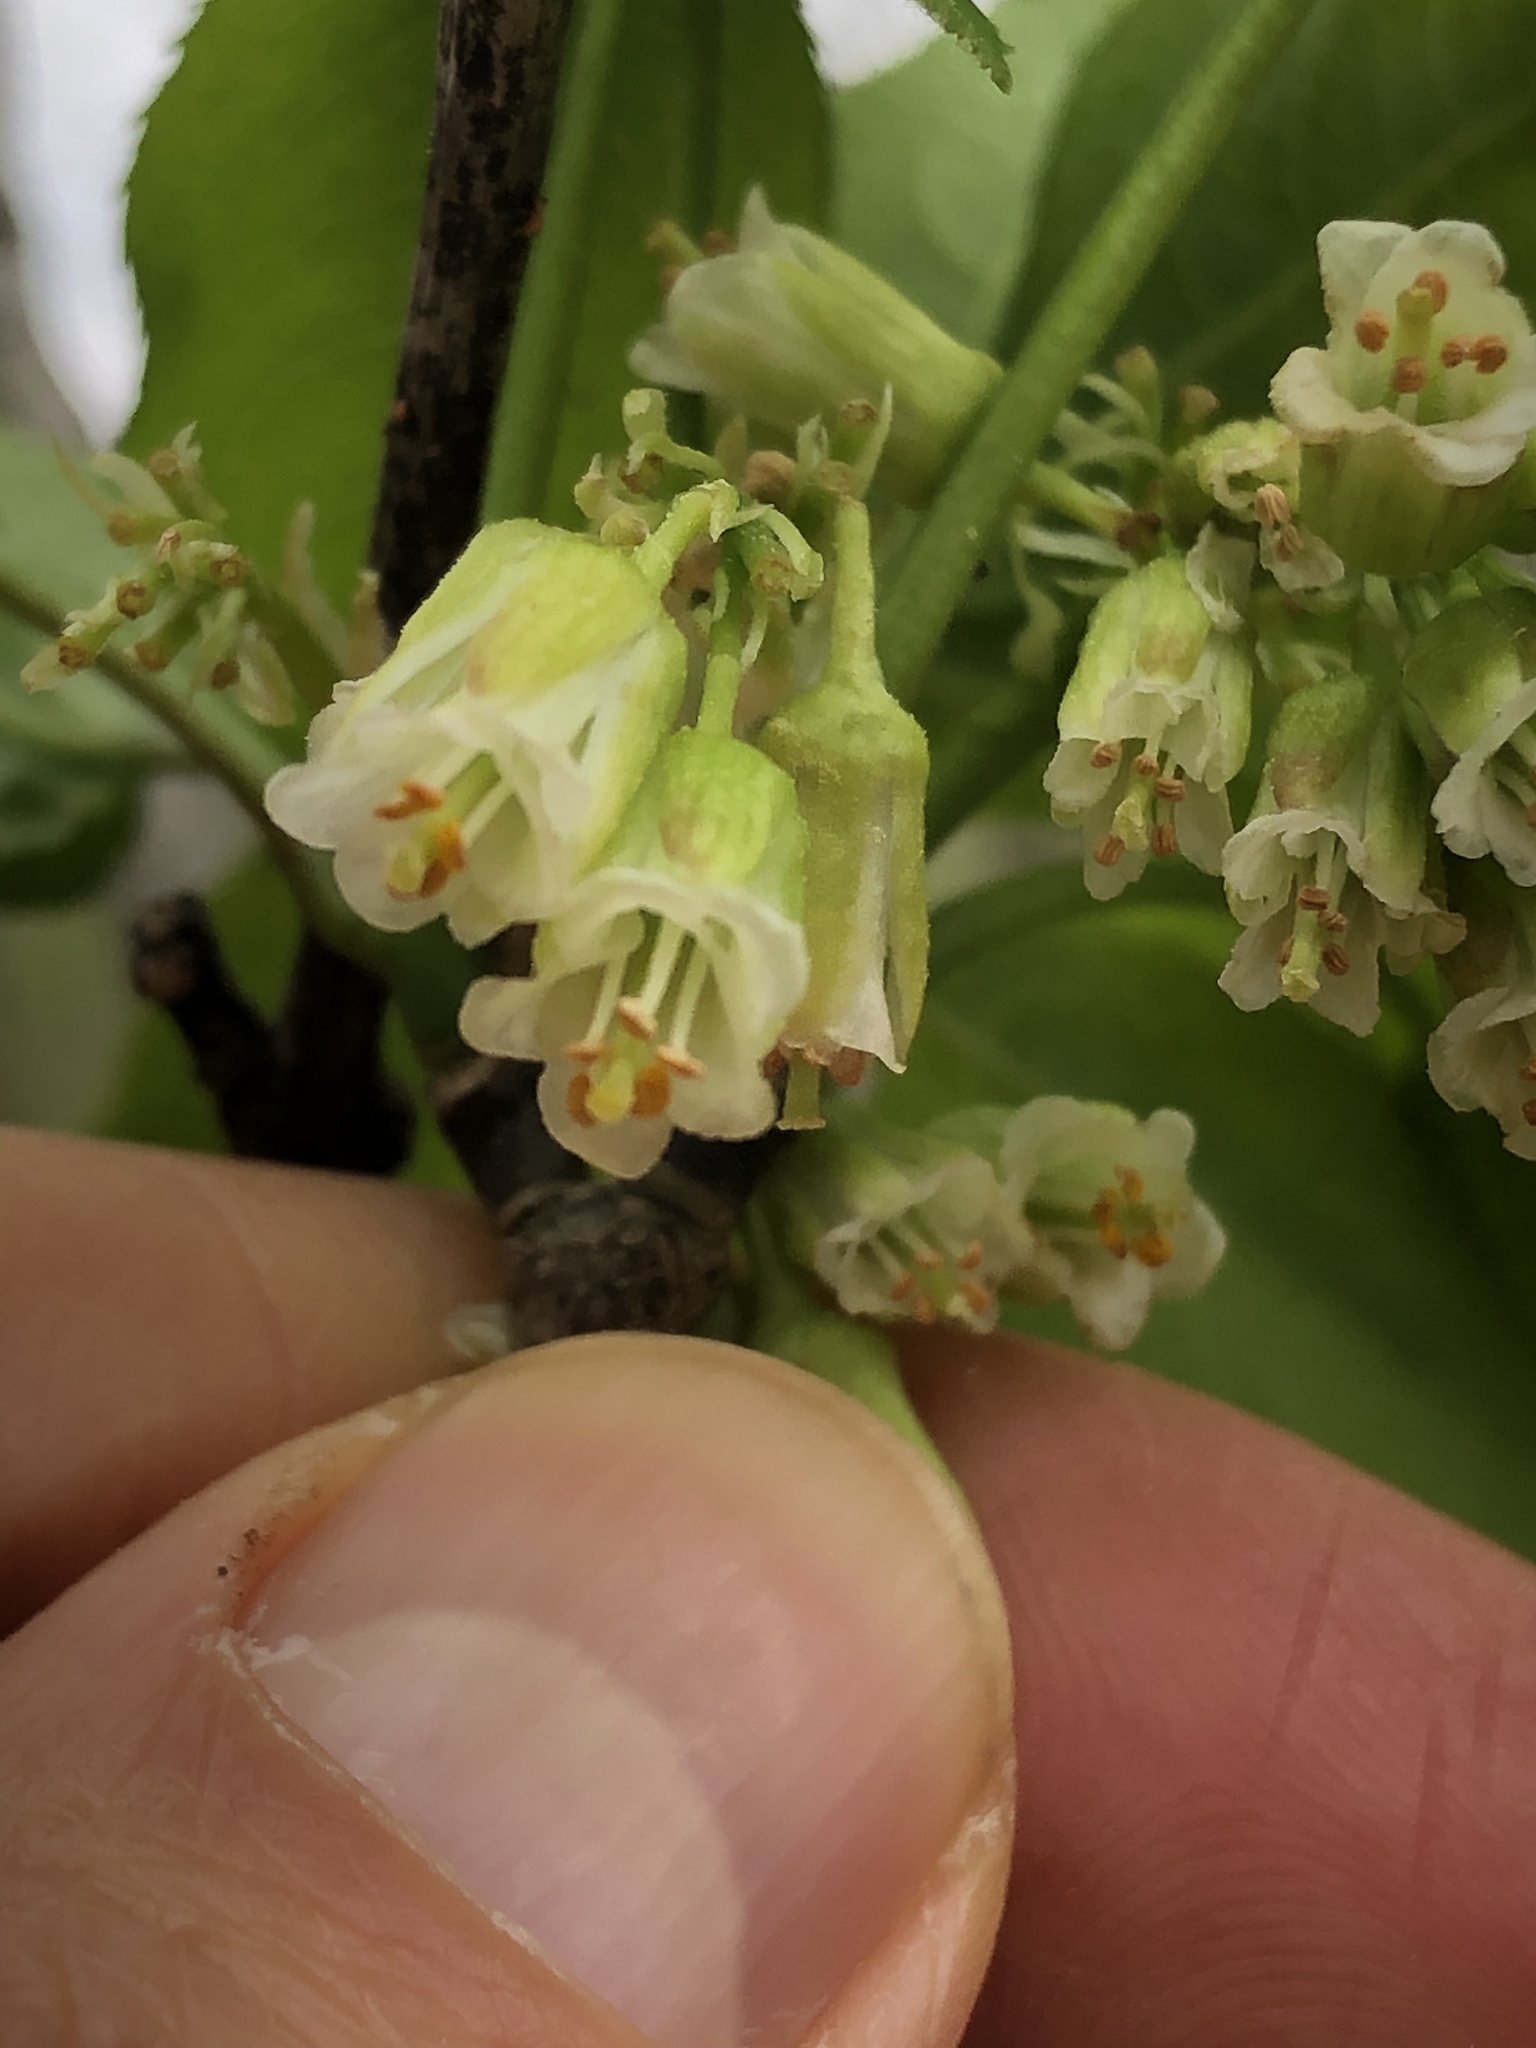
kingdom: Plantae
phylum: Tracheophyta
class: Magnoliopsida
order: Crossosomatales
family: Staphyleaceae
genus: Staphylea
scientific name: Staphylea trifolia
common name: American bladdernut
